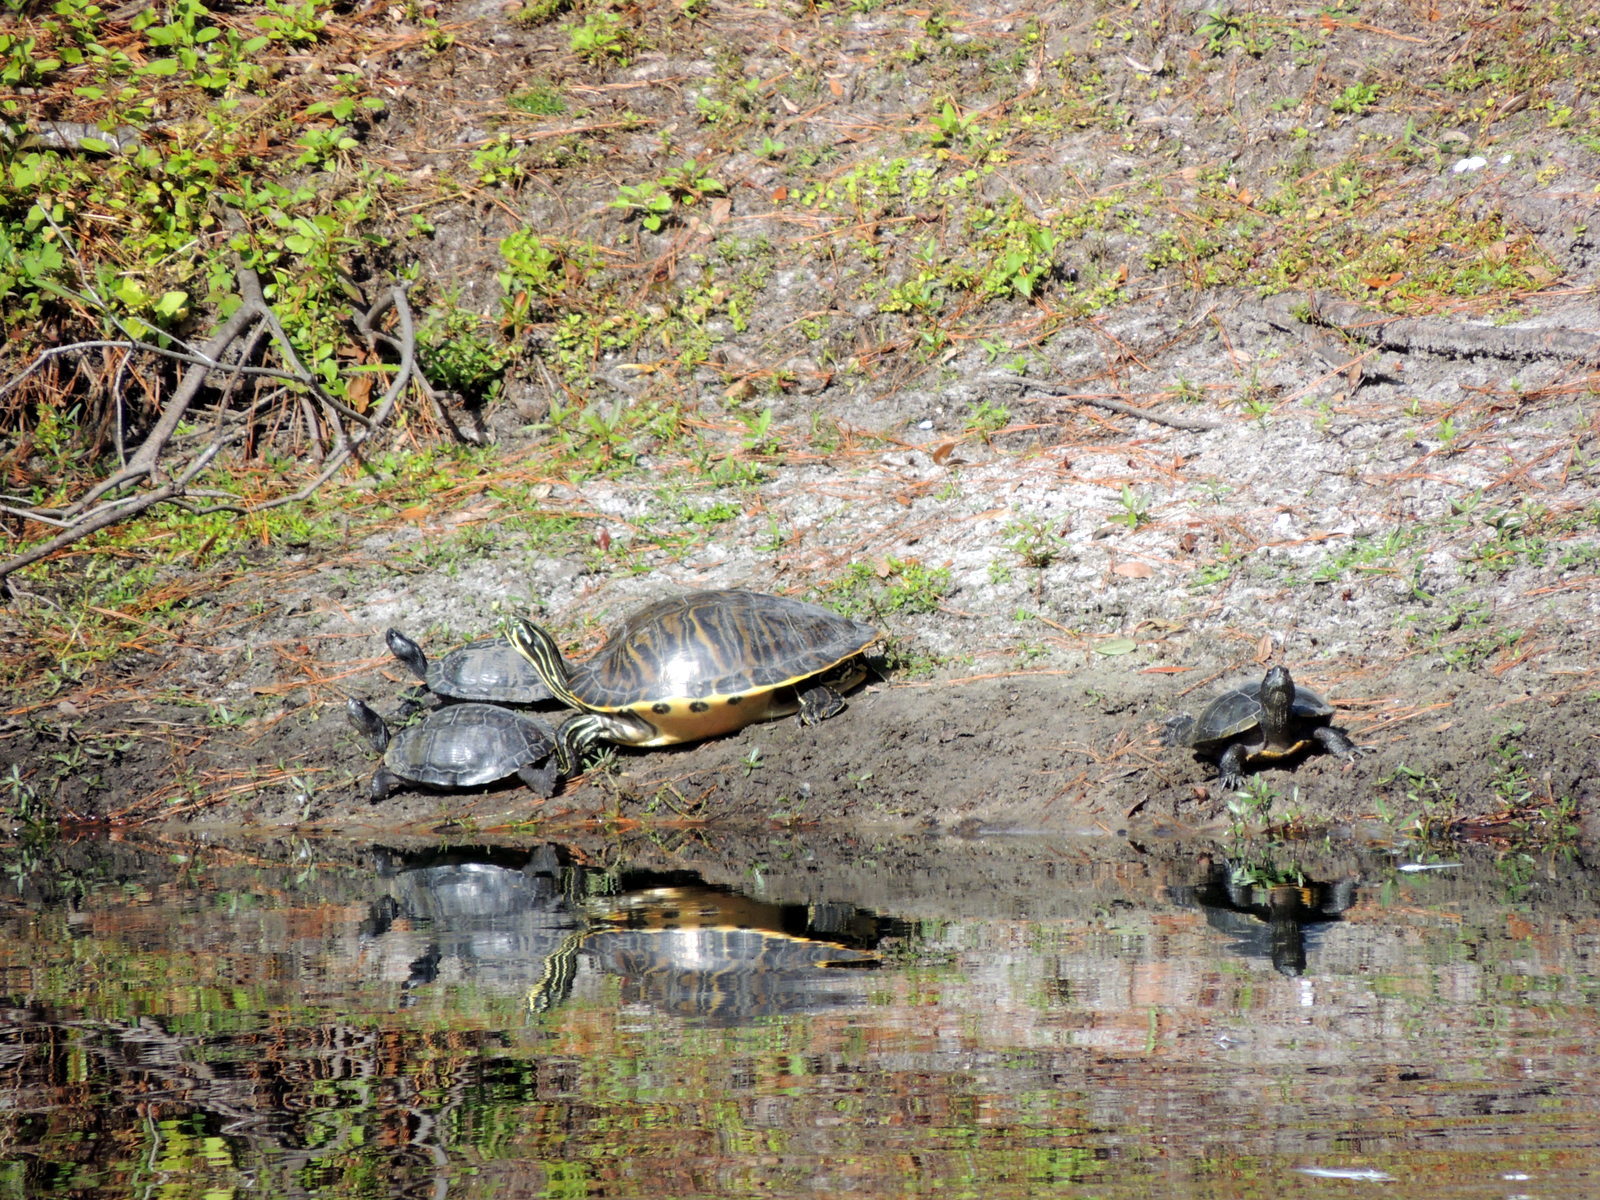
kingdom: Animalia
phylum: Chordata
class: Testudines
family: Emydidae
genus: Pseudemys
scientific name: Pseudemys peninsularis
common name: Peninsula cooter
